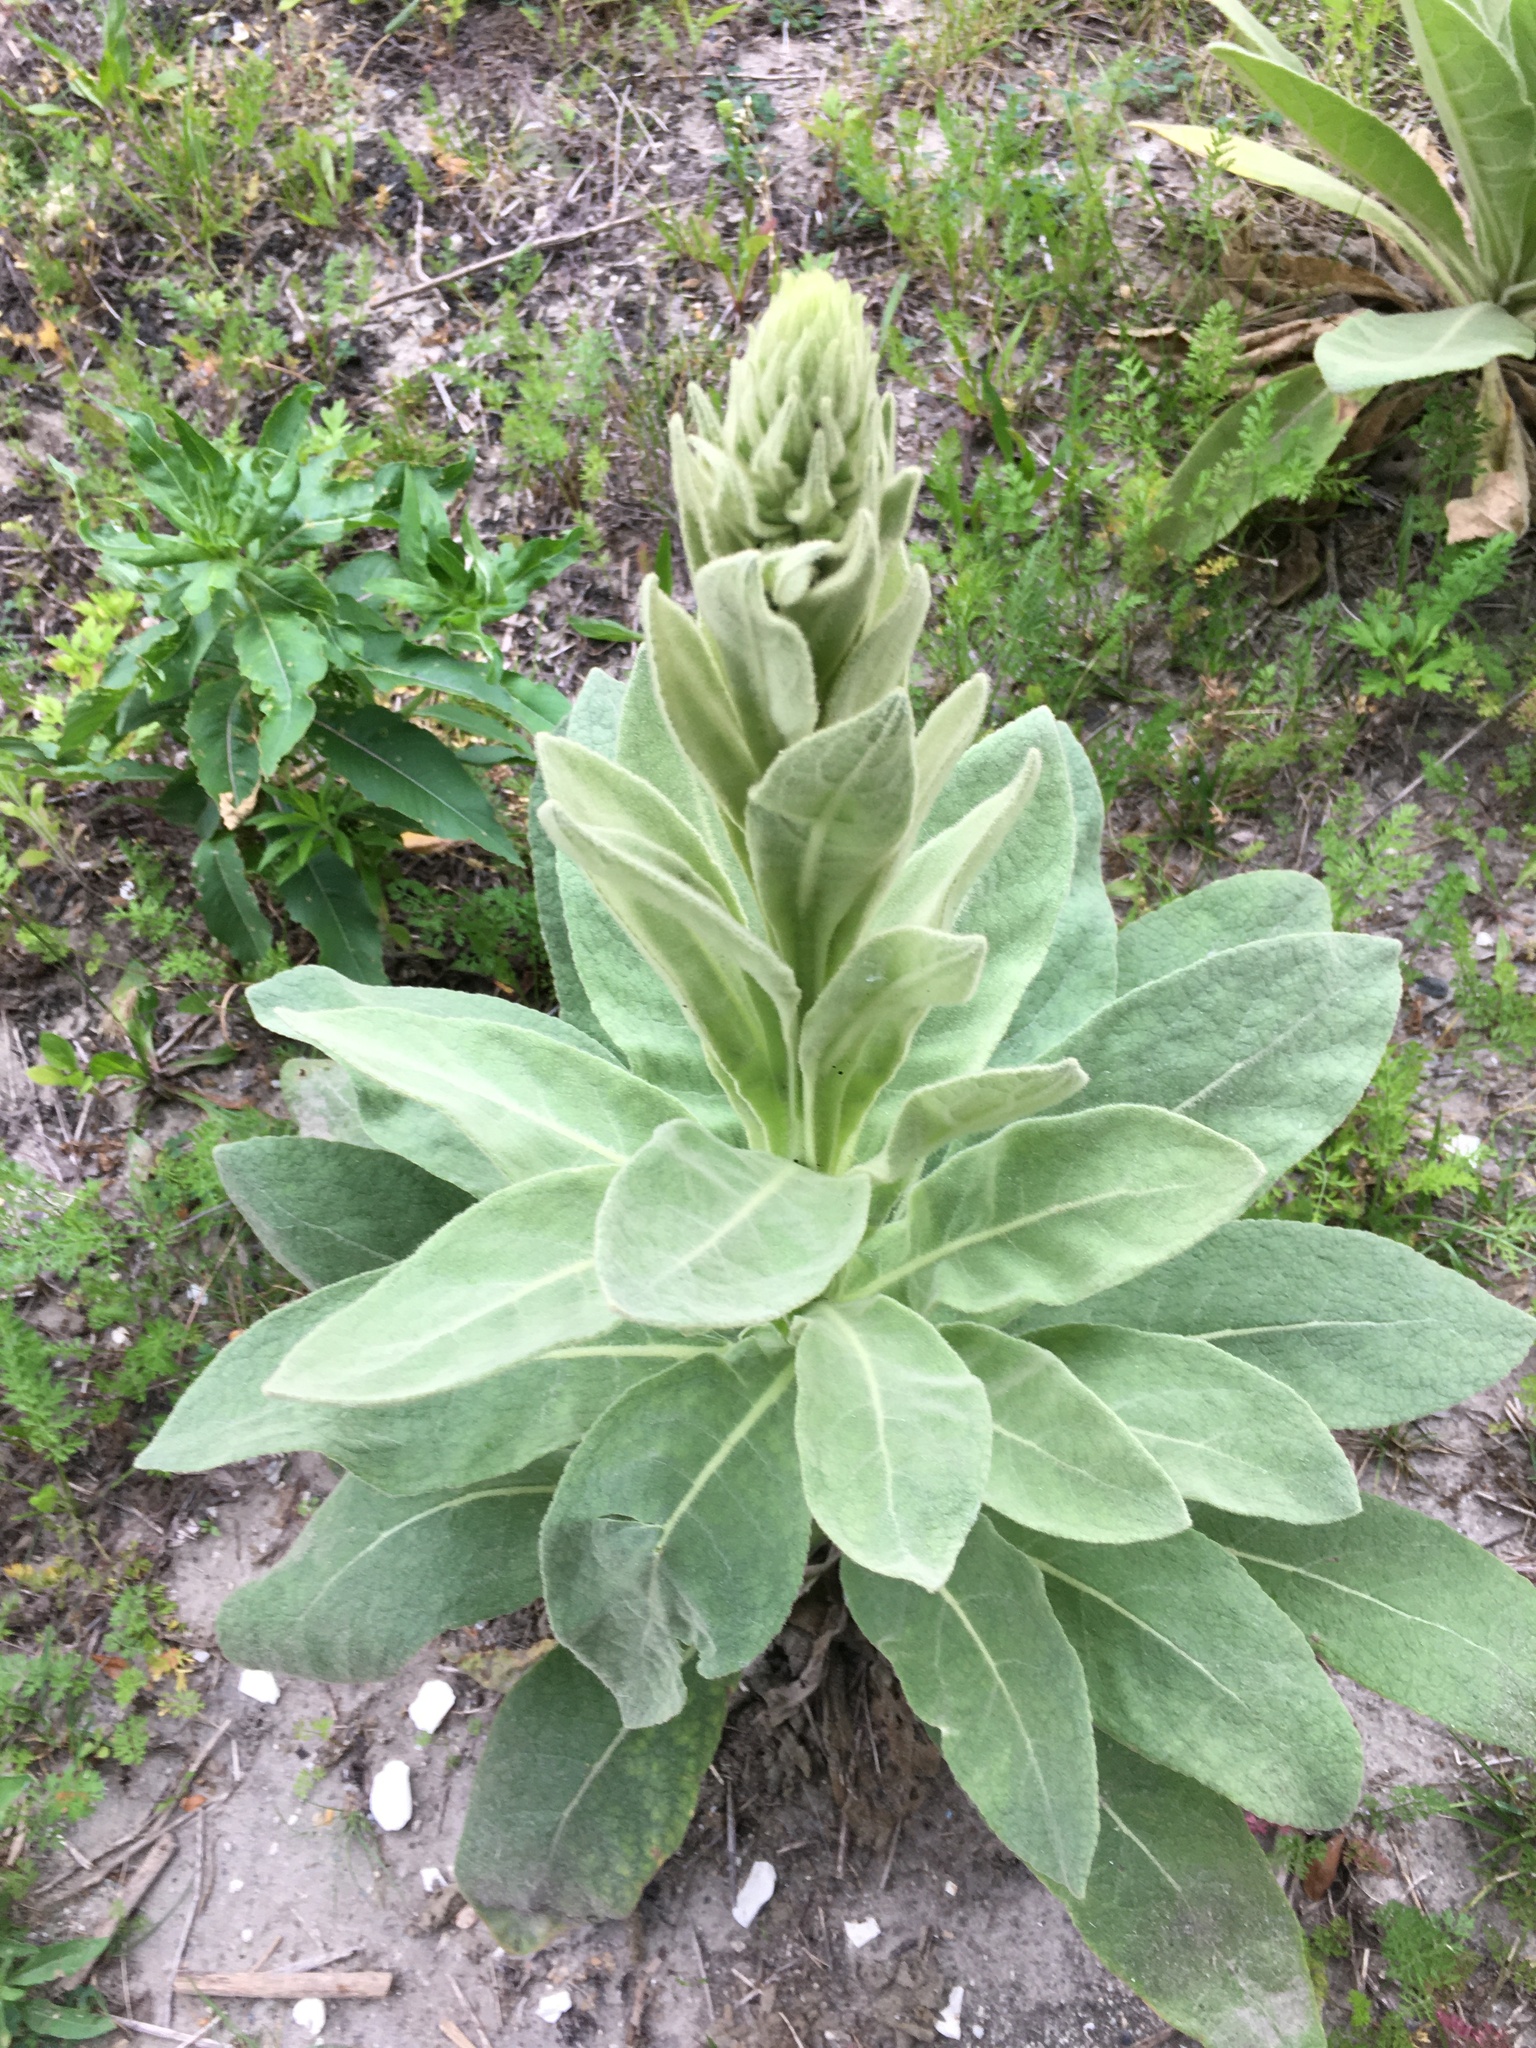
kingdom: Plantae
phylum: Tracheophyta
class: Magnoliopsida
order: Lamiales
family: Scrophulariaceae
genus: Verbascum
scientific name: Verbascum thapsus
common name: Common mullein
